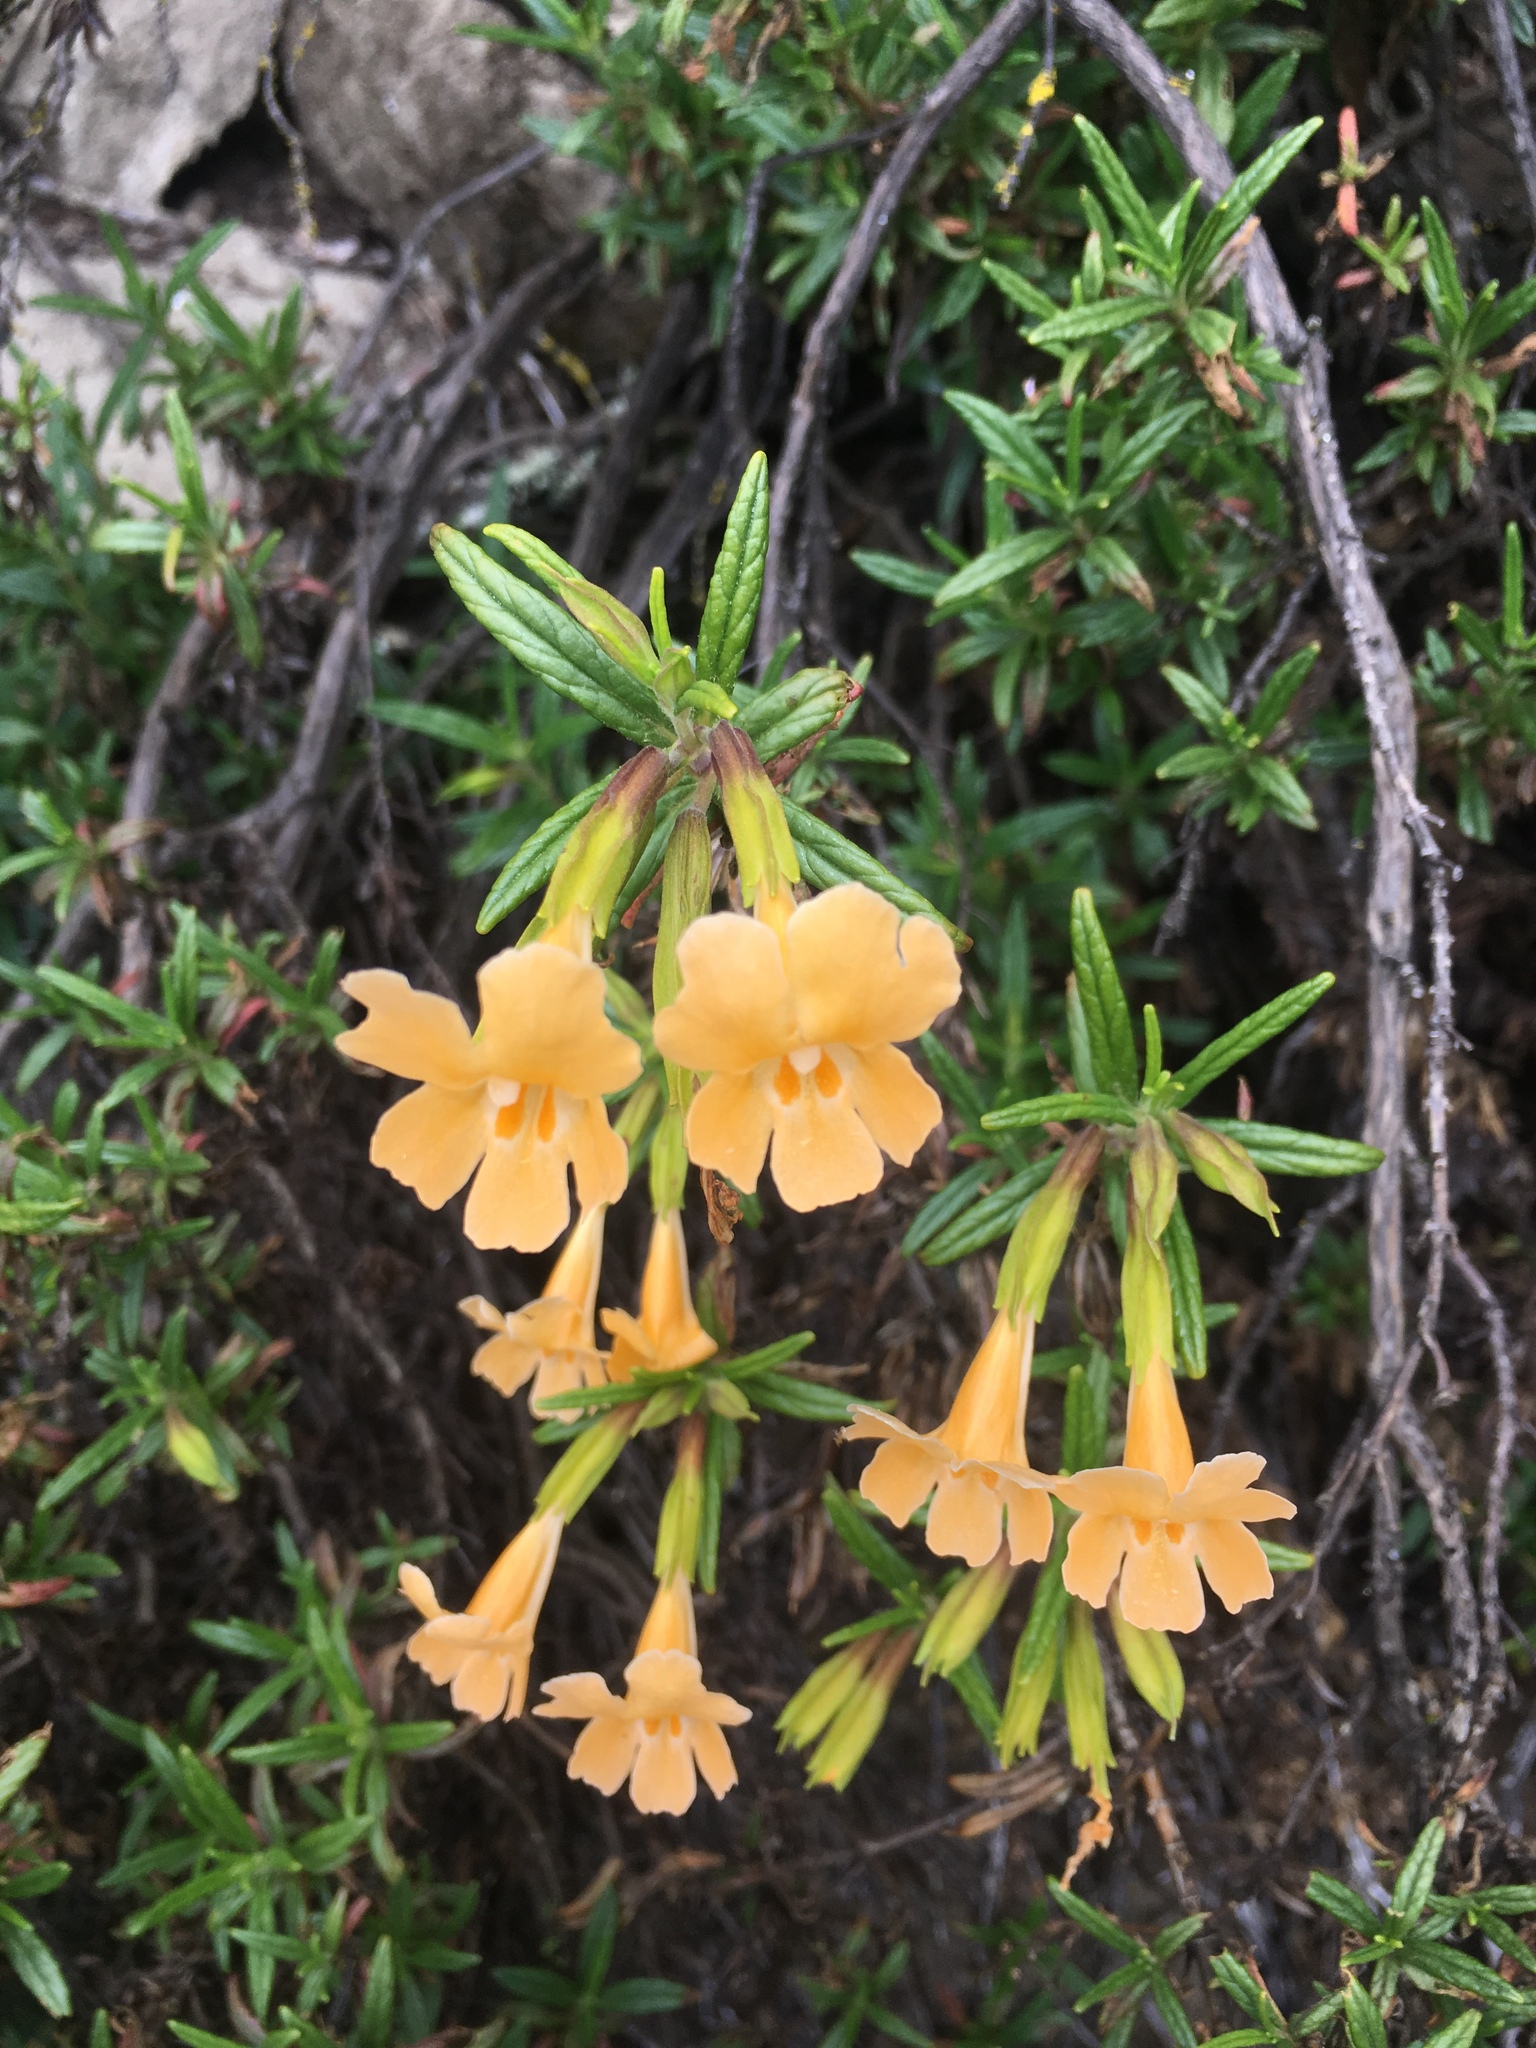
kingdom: Plantae
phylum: Tracheophyta
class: Magnoliopsida
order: Lamiales
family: Phrymaceae
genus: Diplacus
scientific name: Diplacus aurantiacus
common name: Bush monkey-flower
